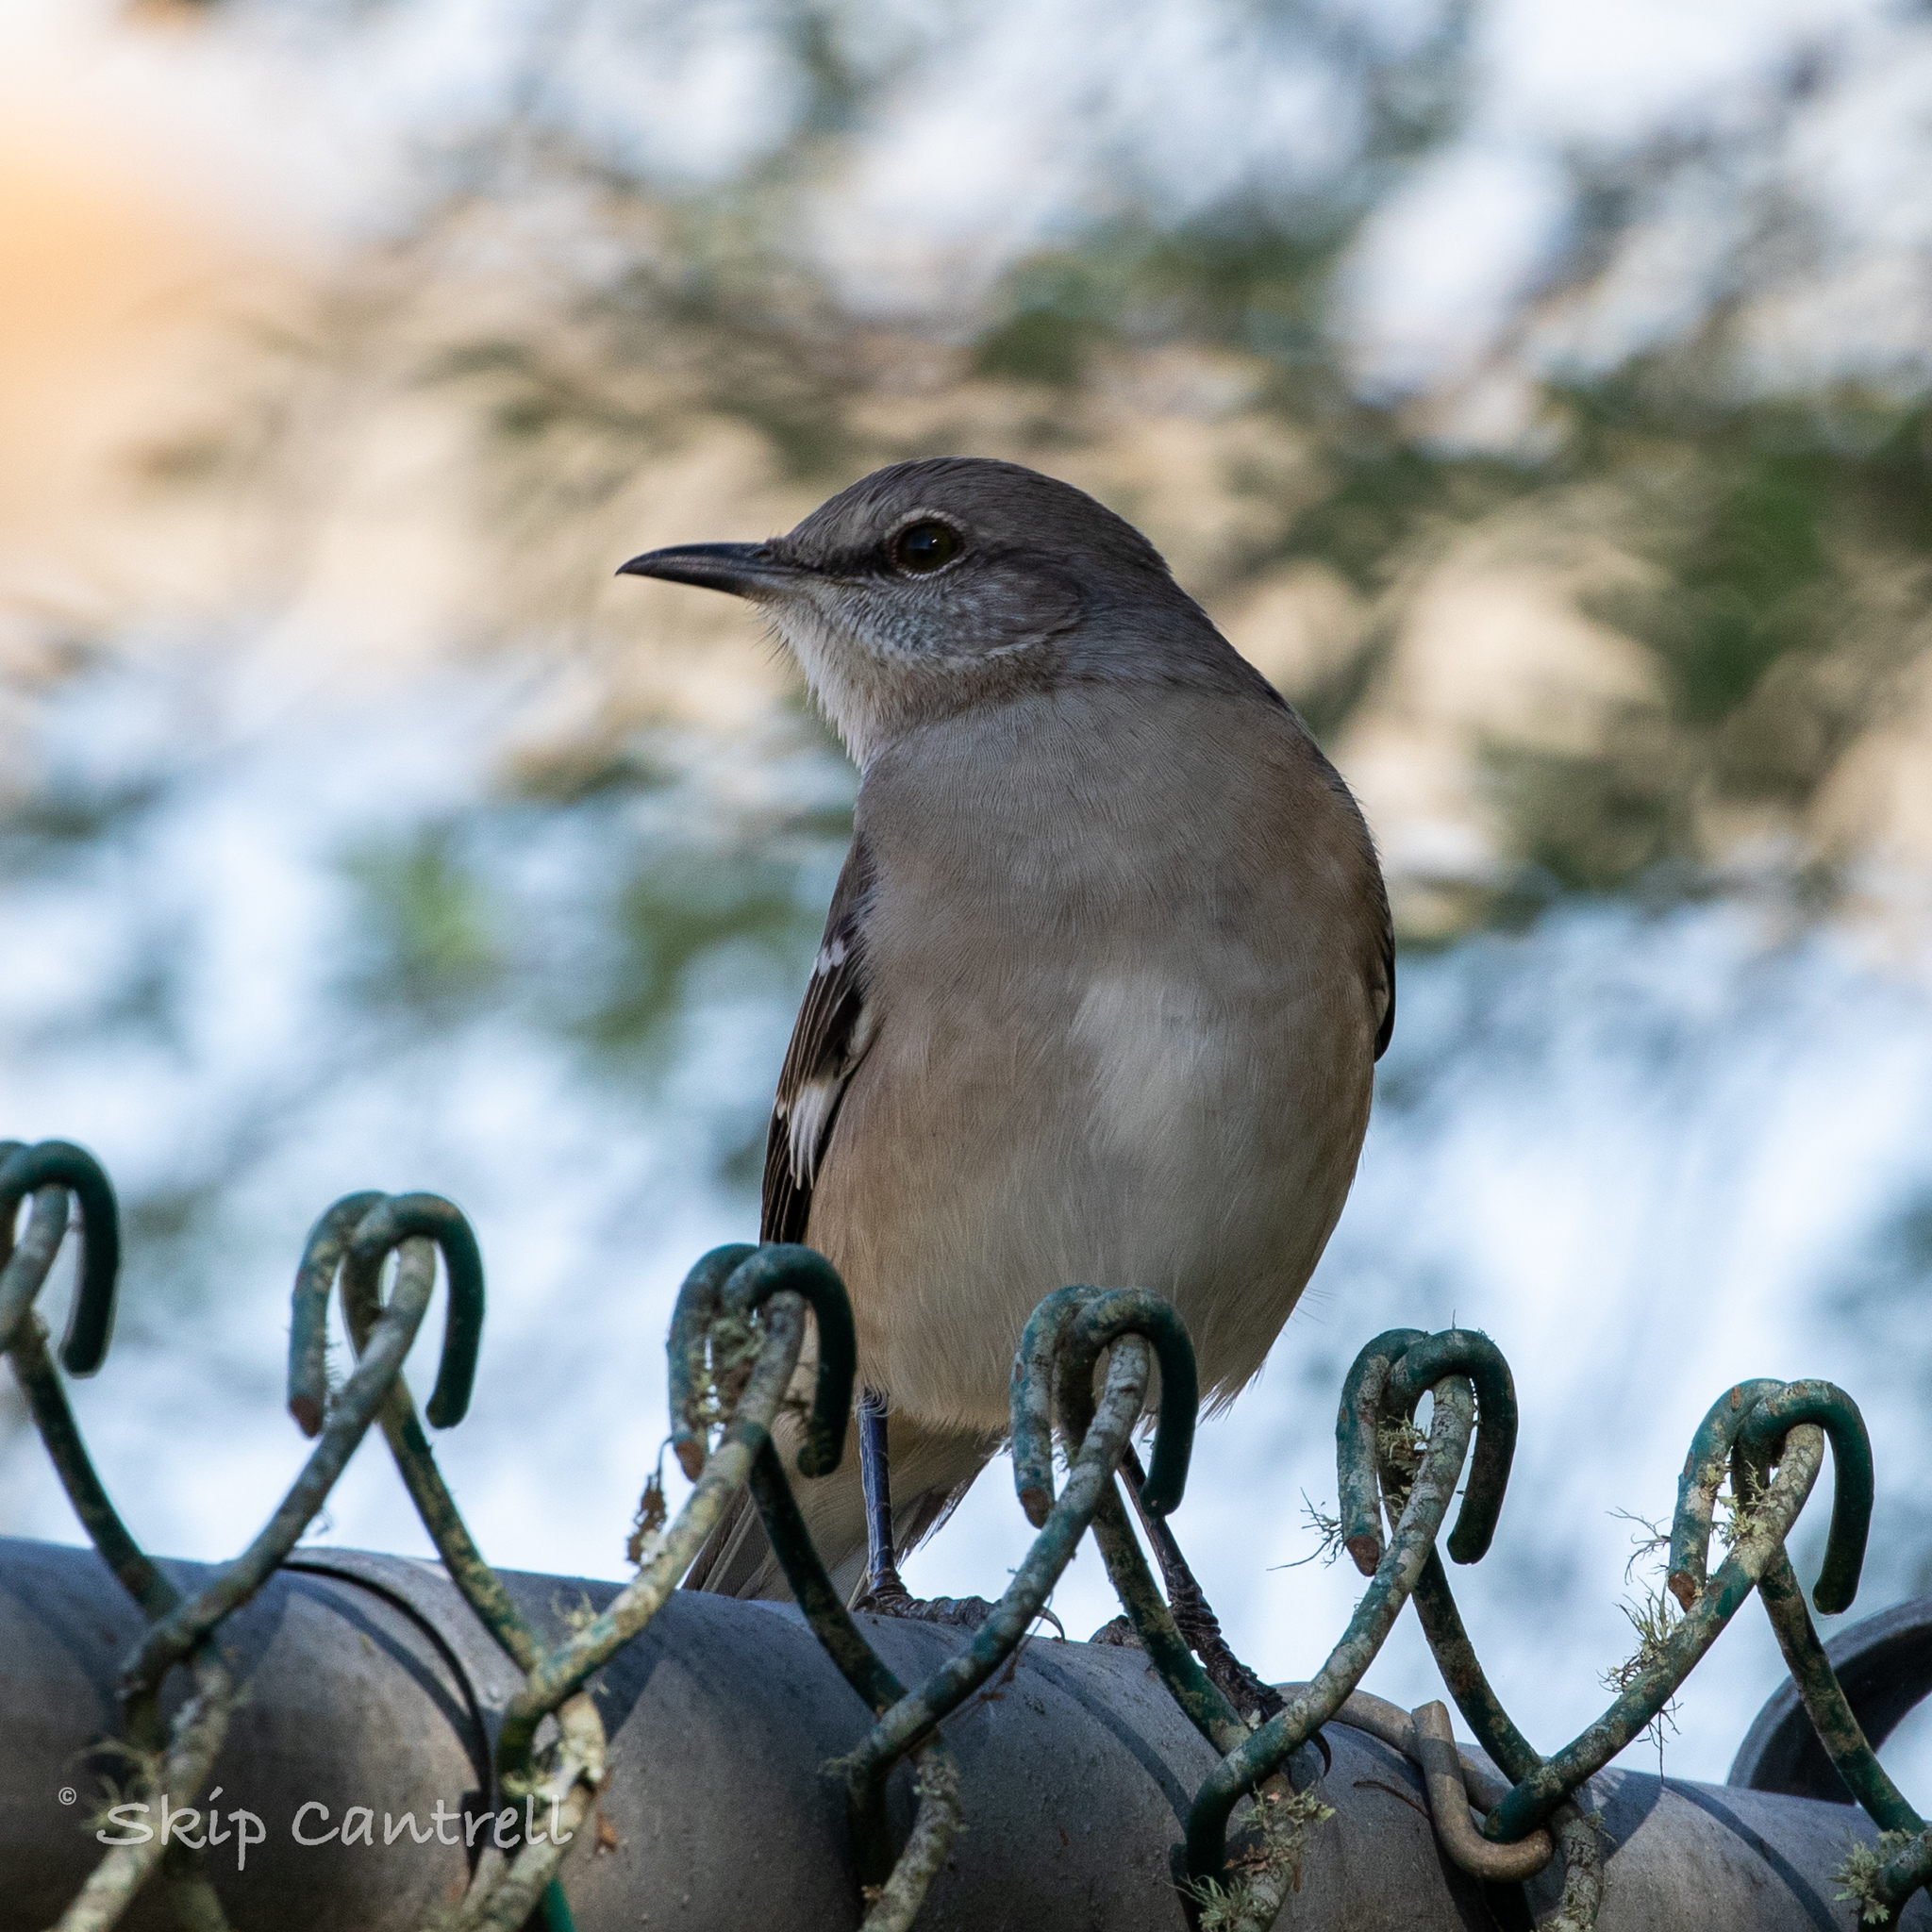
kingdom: Animalia
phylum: Chordata
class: Aves
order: Passeriformes
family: Mimidae
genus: Mimus
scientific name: Mimus polyglottos
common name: Northern mockingbird
